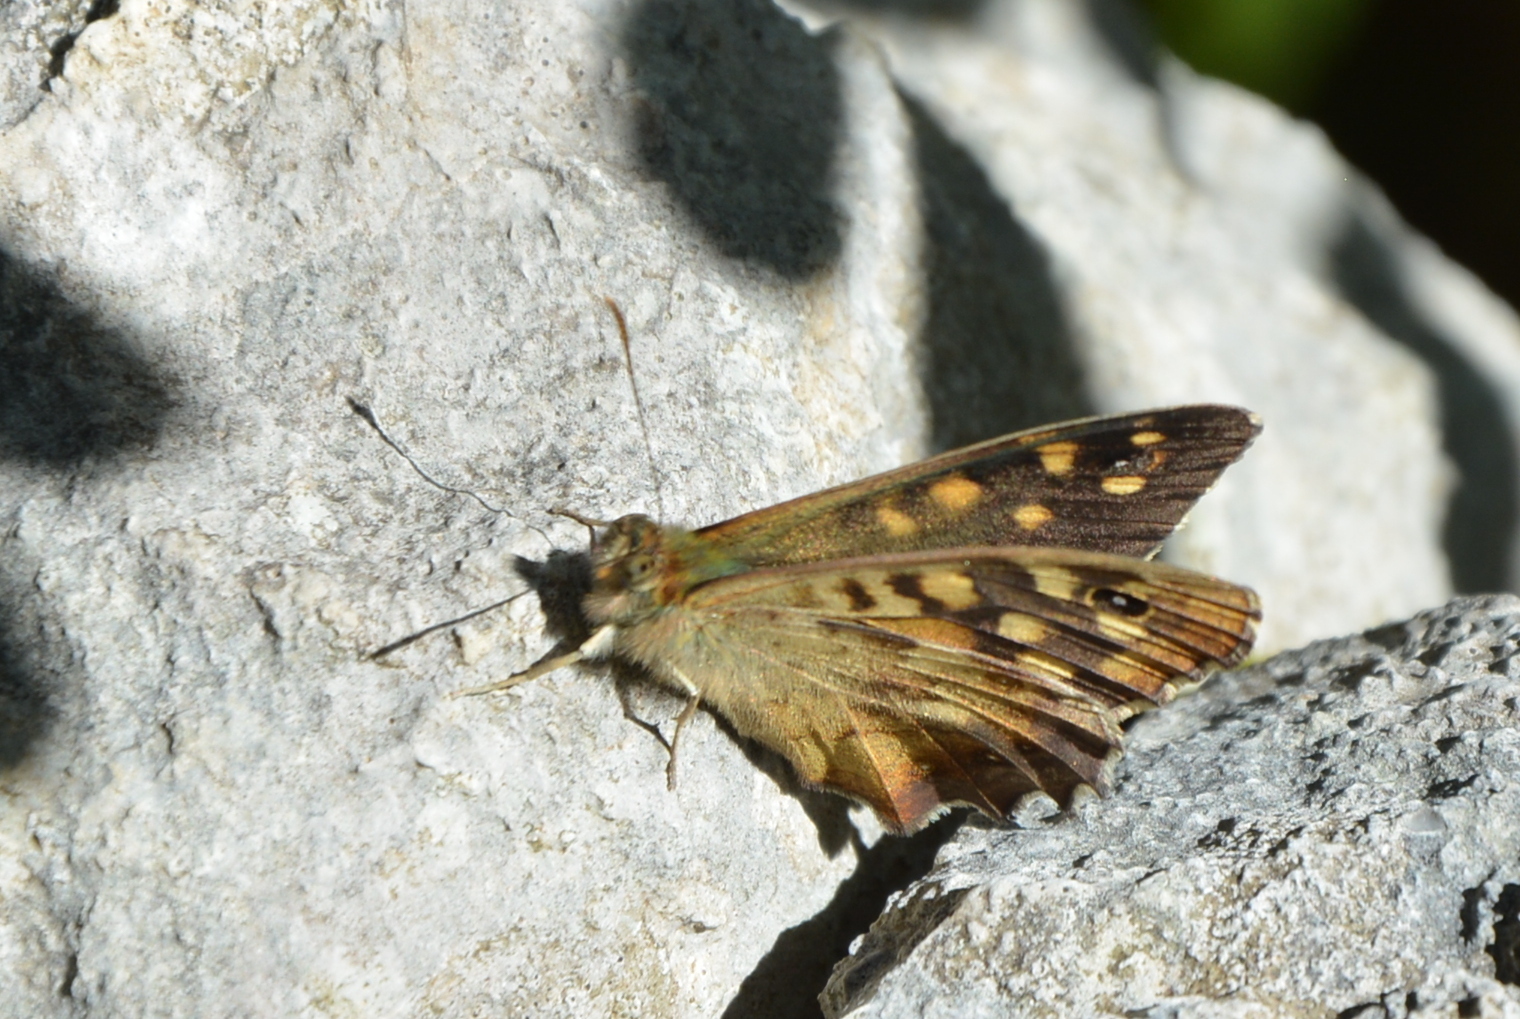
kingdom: Animalia
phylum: Arthropoda
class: Insecta
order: Lepidoptera
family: Nymphalidae
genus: Pararge
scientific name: Pararge aegeria
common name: Speckled wood
